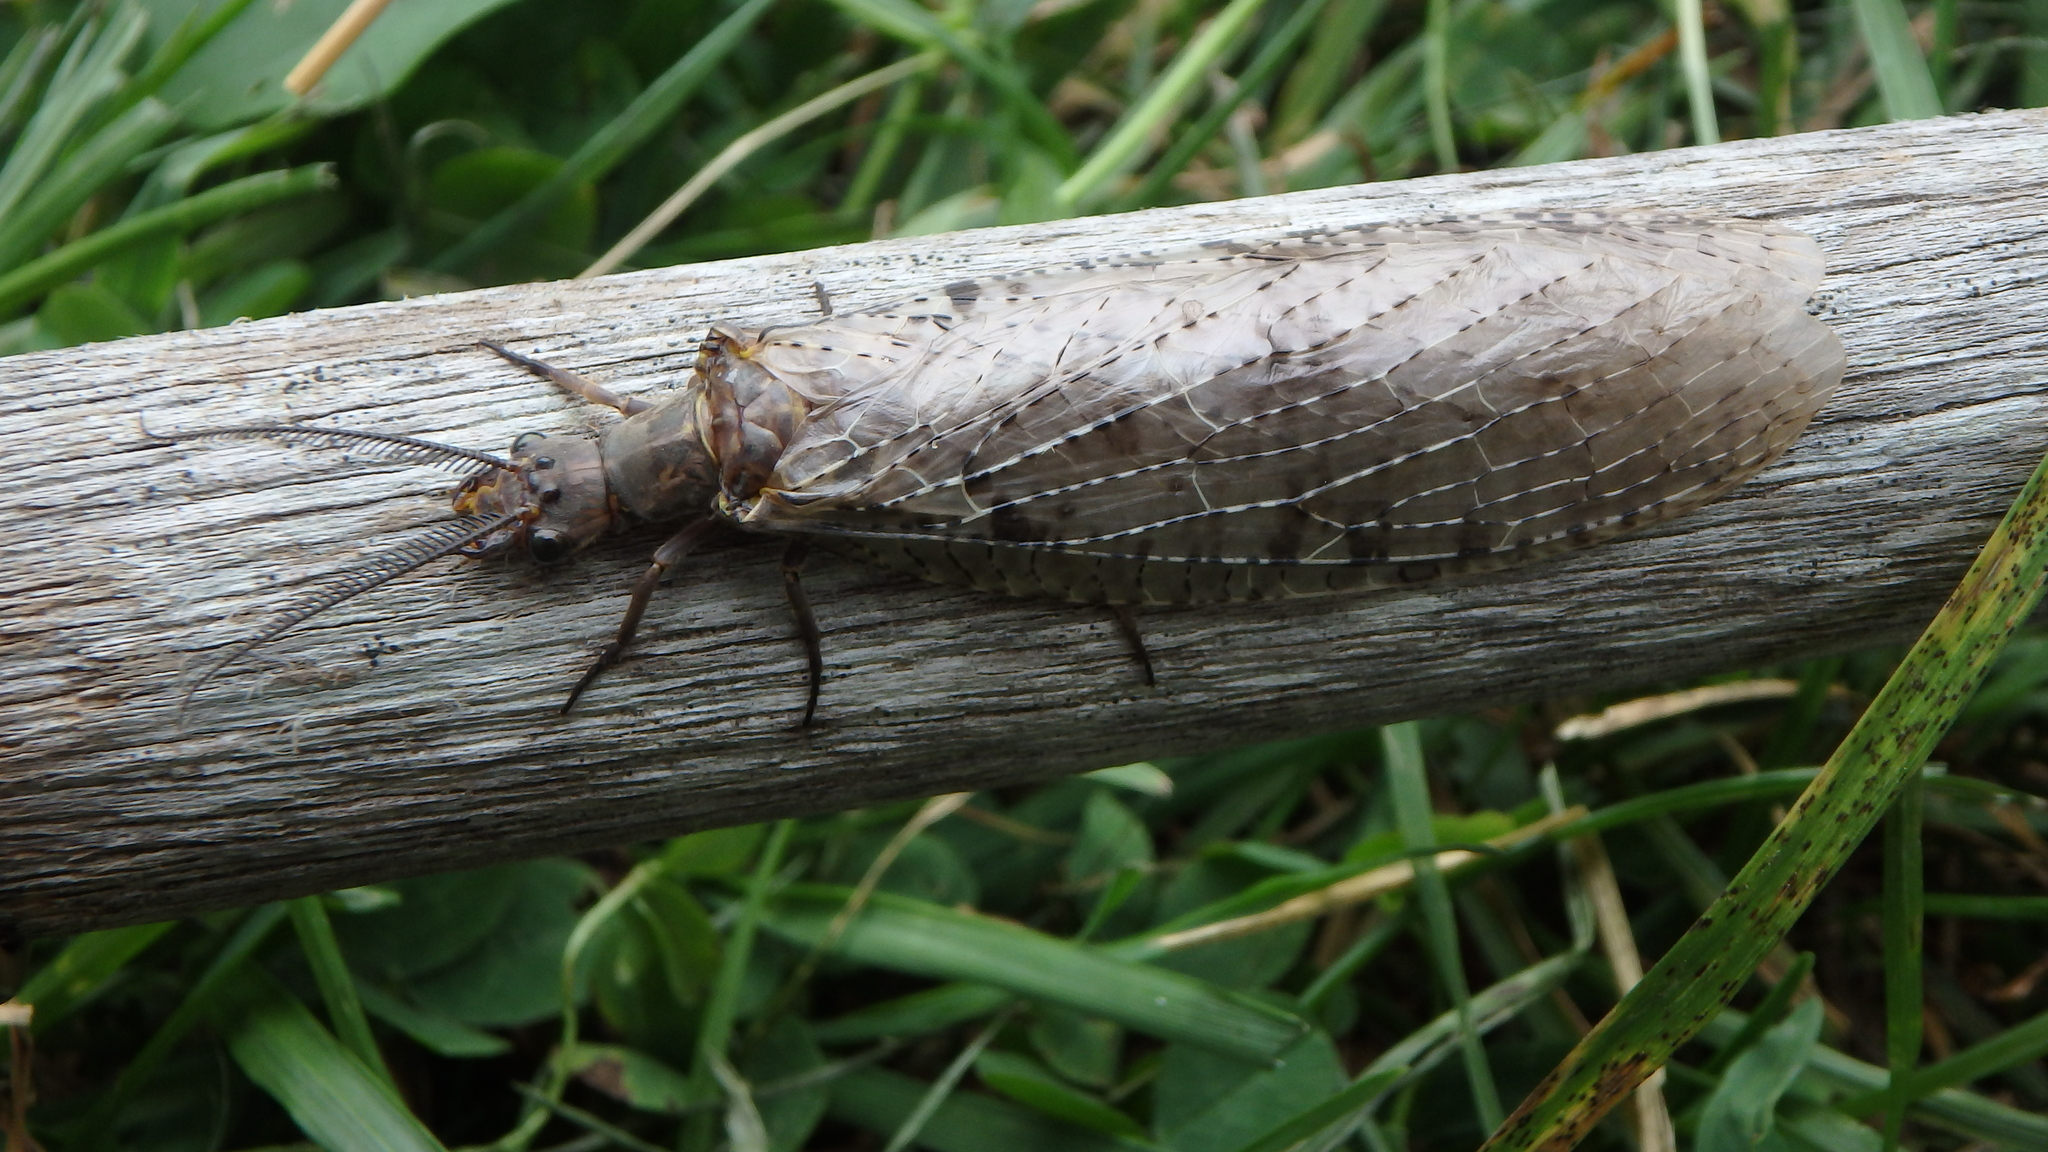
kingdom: Animalia
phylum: Arthropoda
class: Insecta
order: Megaloptera
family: Corydalidae
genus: Chauliodes
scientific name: Chauliodes pectinicornis
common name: Summer fishfly
